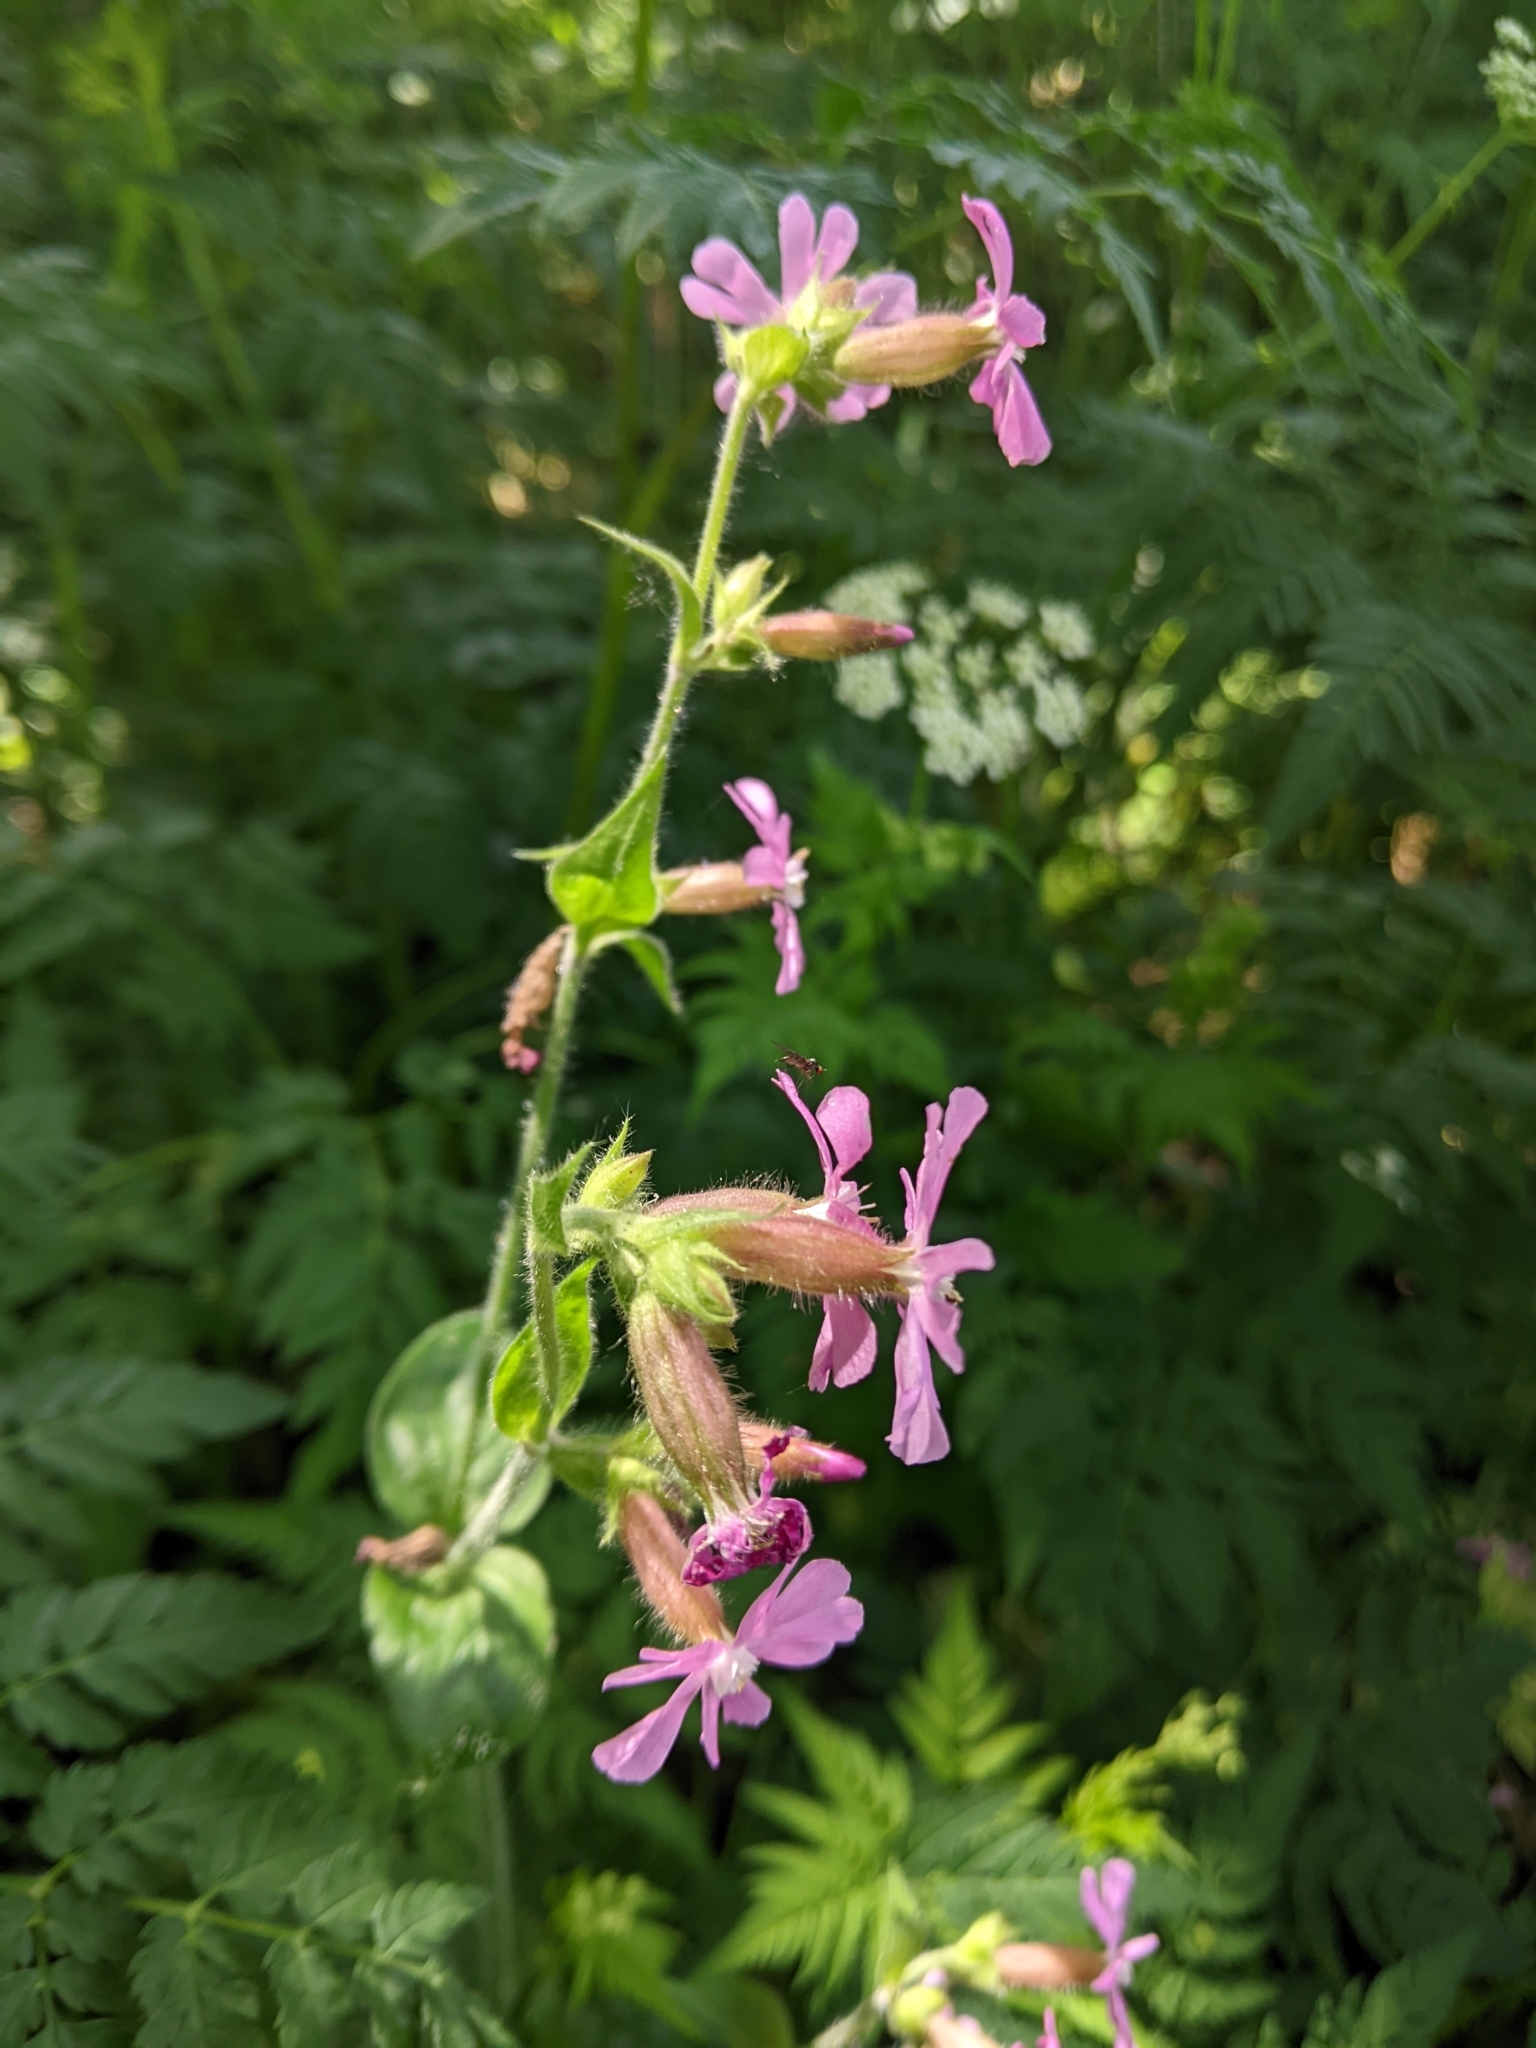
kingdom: Plantae
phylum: Tracheophyta
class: Magnoliopsida
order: Caryophyllales
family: Caryophyllaceae
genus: Silene
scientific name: Silene dioica
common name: Red campion
